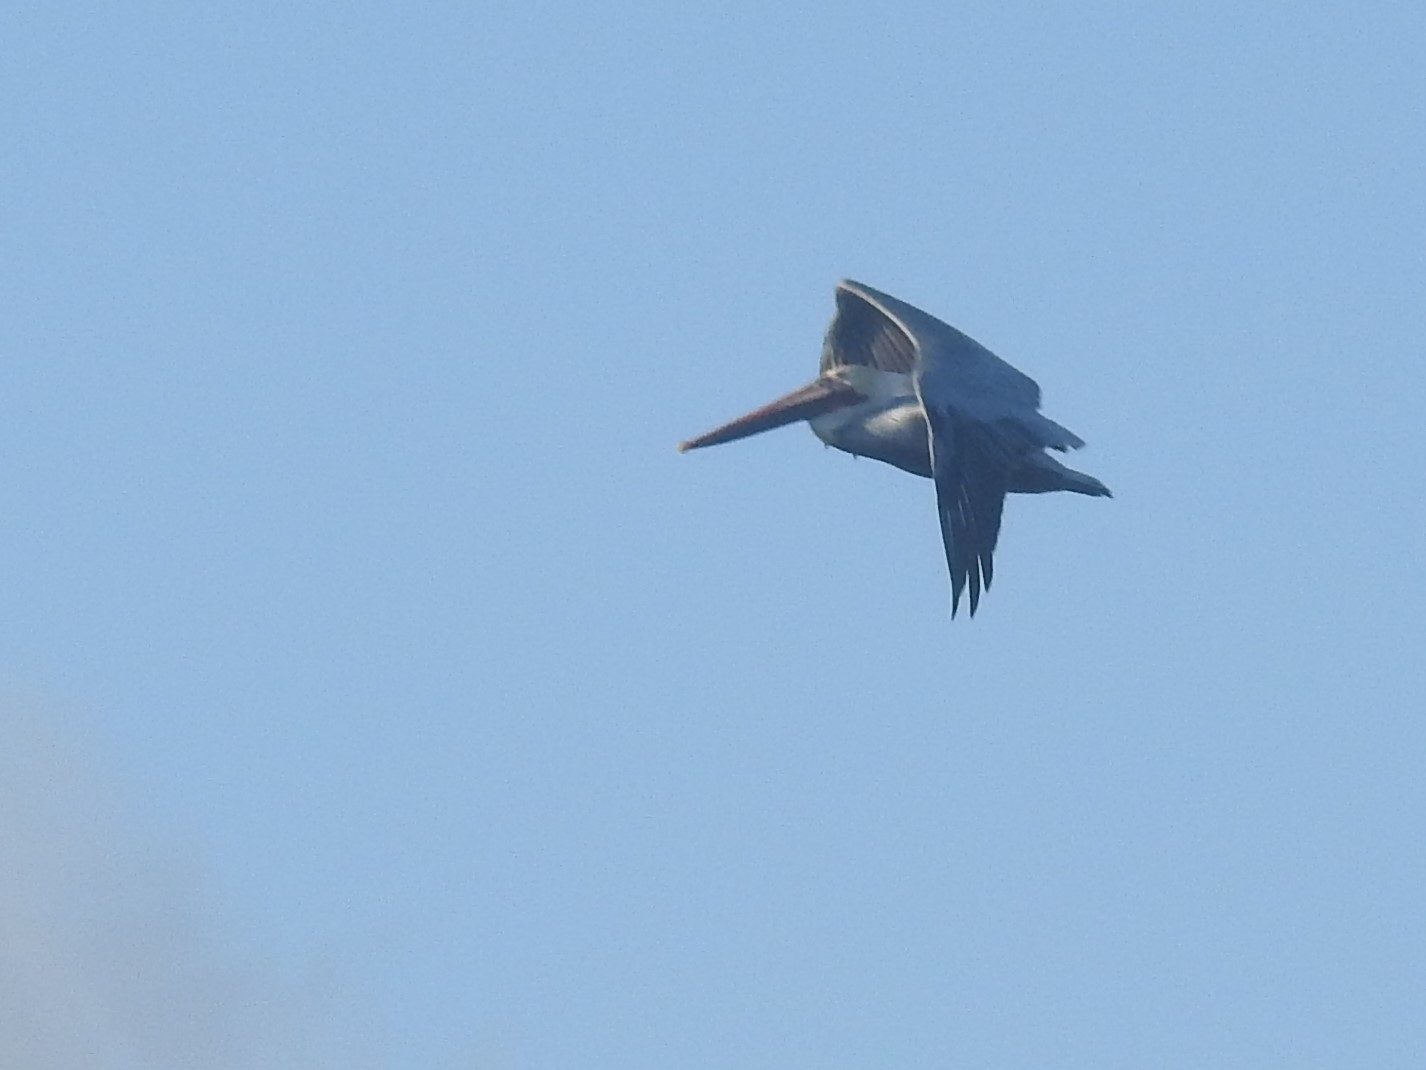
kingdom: Animalia
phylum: Chordata
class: Aves
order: Pelecaniformes
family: Pelecanidae
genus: Pelecanus
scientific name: Pelecanus occidentalis
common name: Brown pelican
